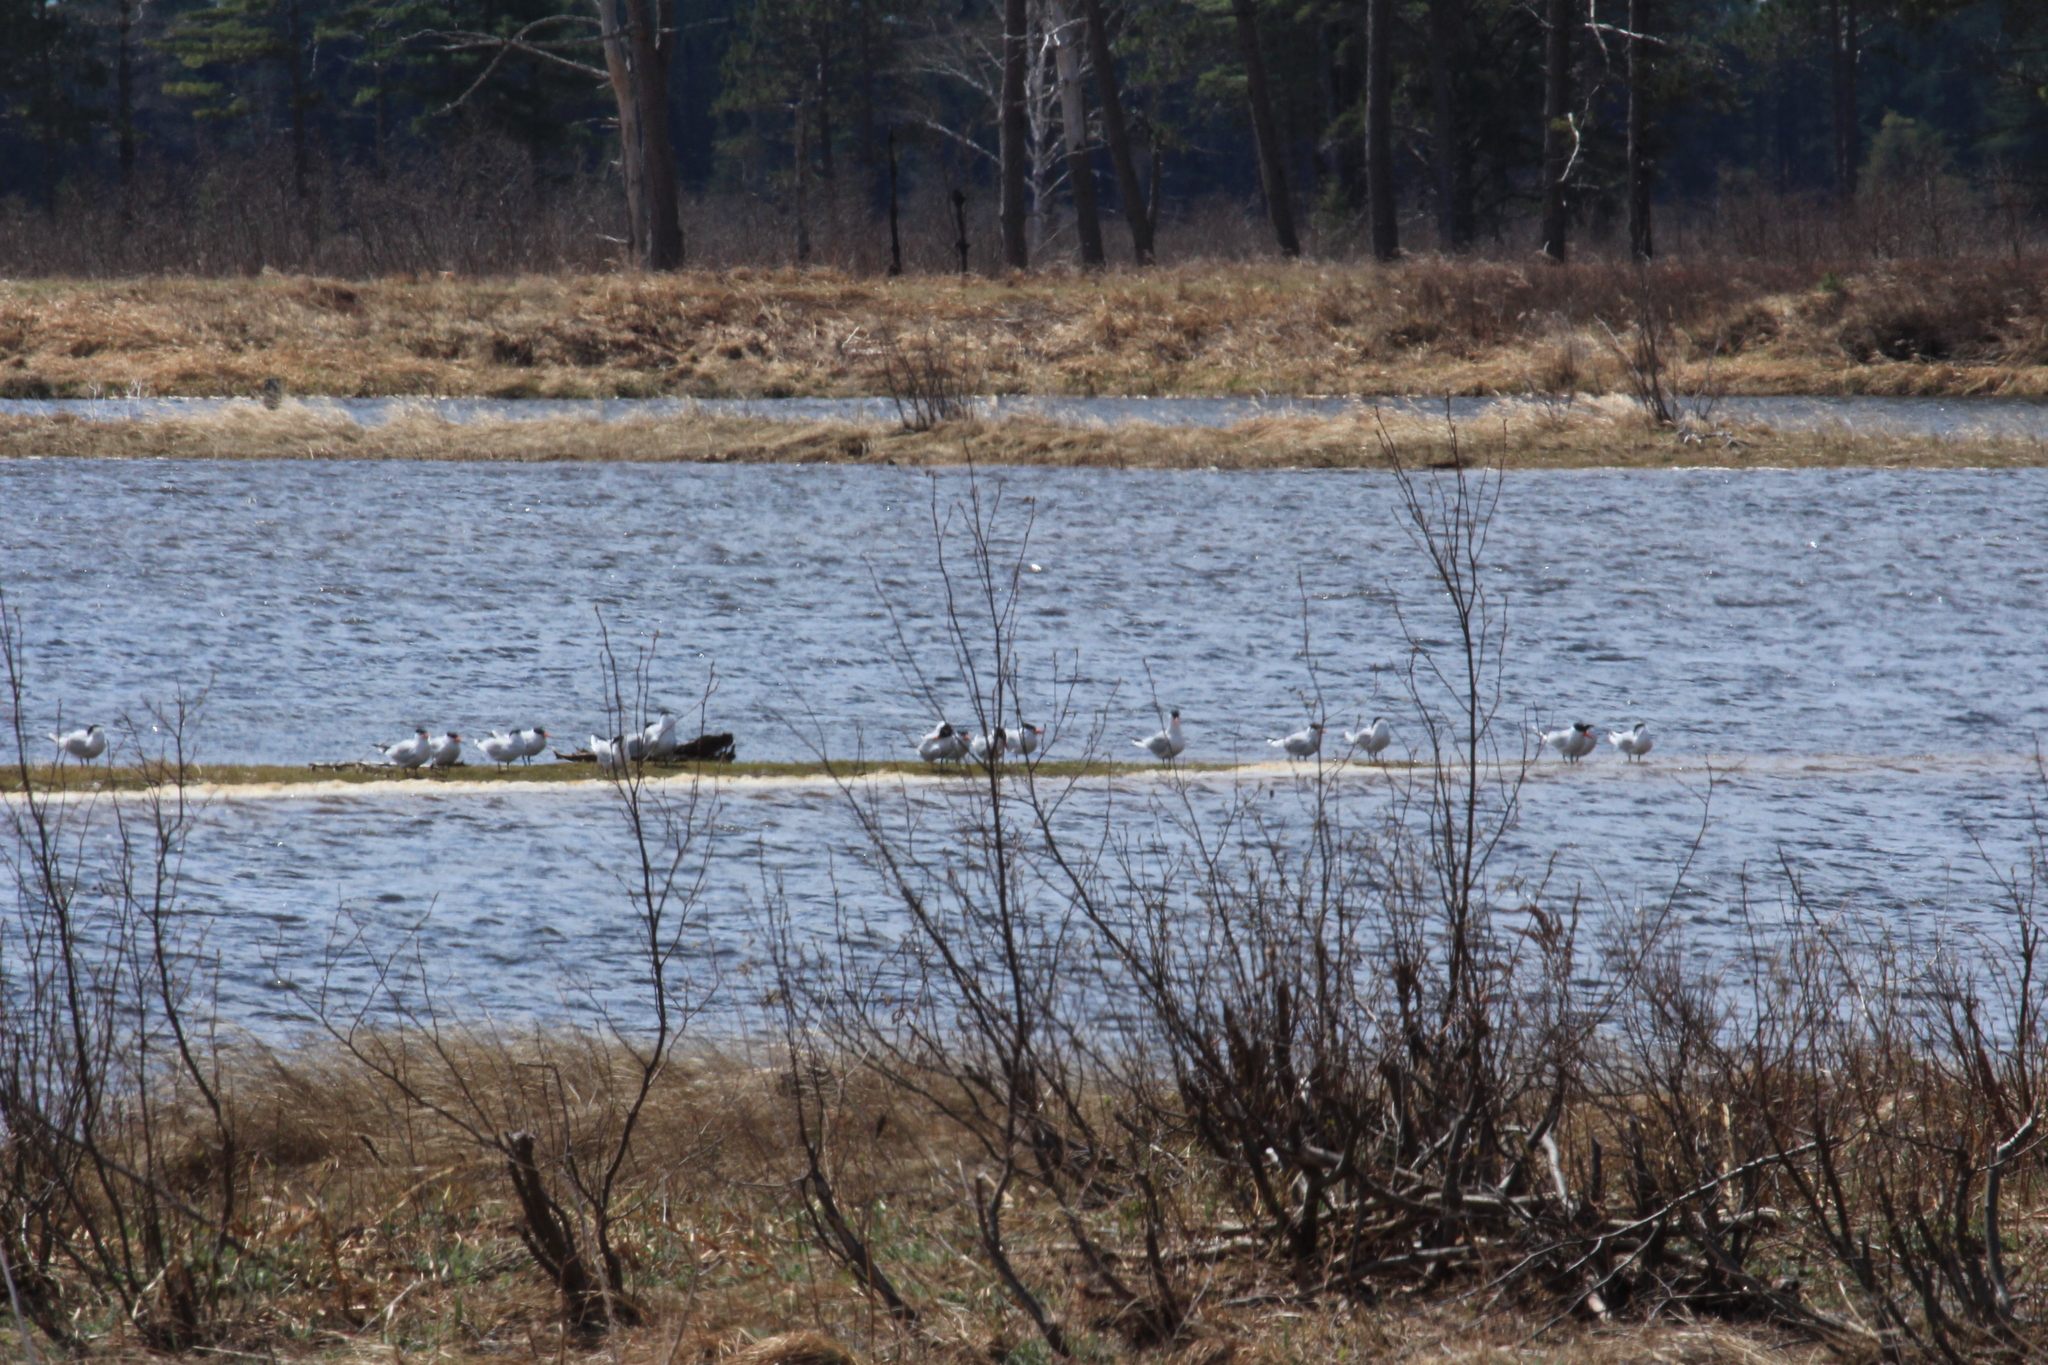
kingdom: Animalia
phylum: Chordata
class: Aves
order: Charadriiformes
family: Laridae
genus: Hydroprogne
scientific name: Hydroprogne caspia
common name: Caspian tern
